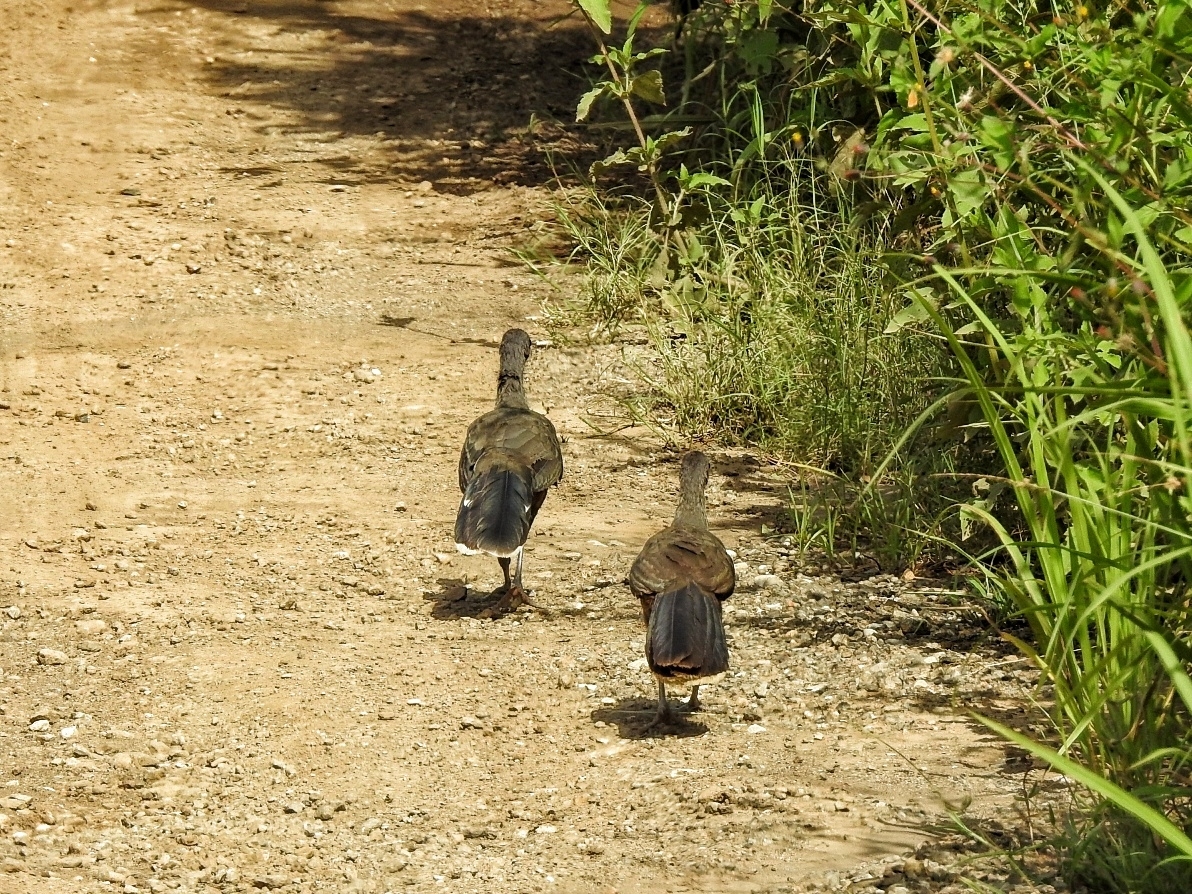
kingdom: Animalia
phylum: Chordata
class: Aves
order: Galliformes
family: Cracidae
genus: Ortalis
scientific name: Ortalis vetula
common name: Plain chachalaca
